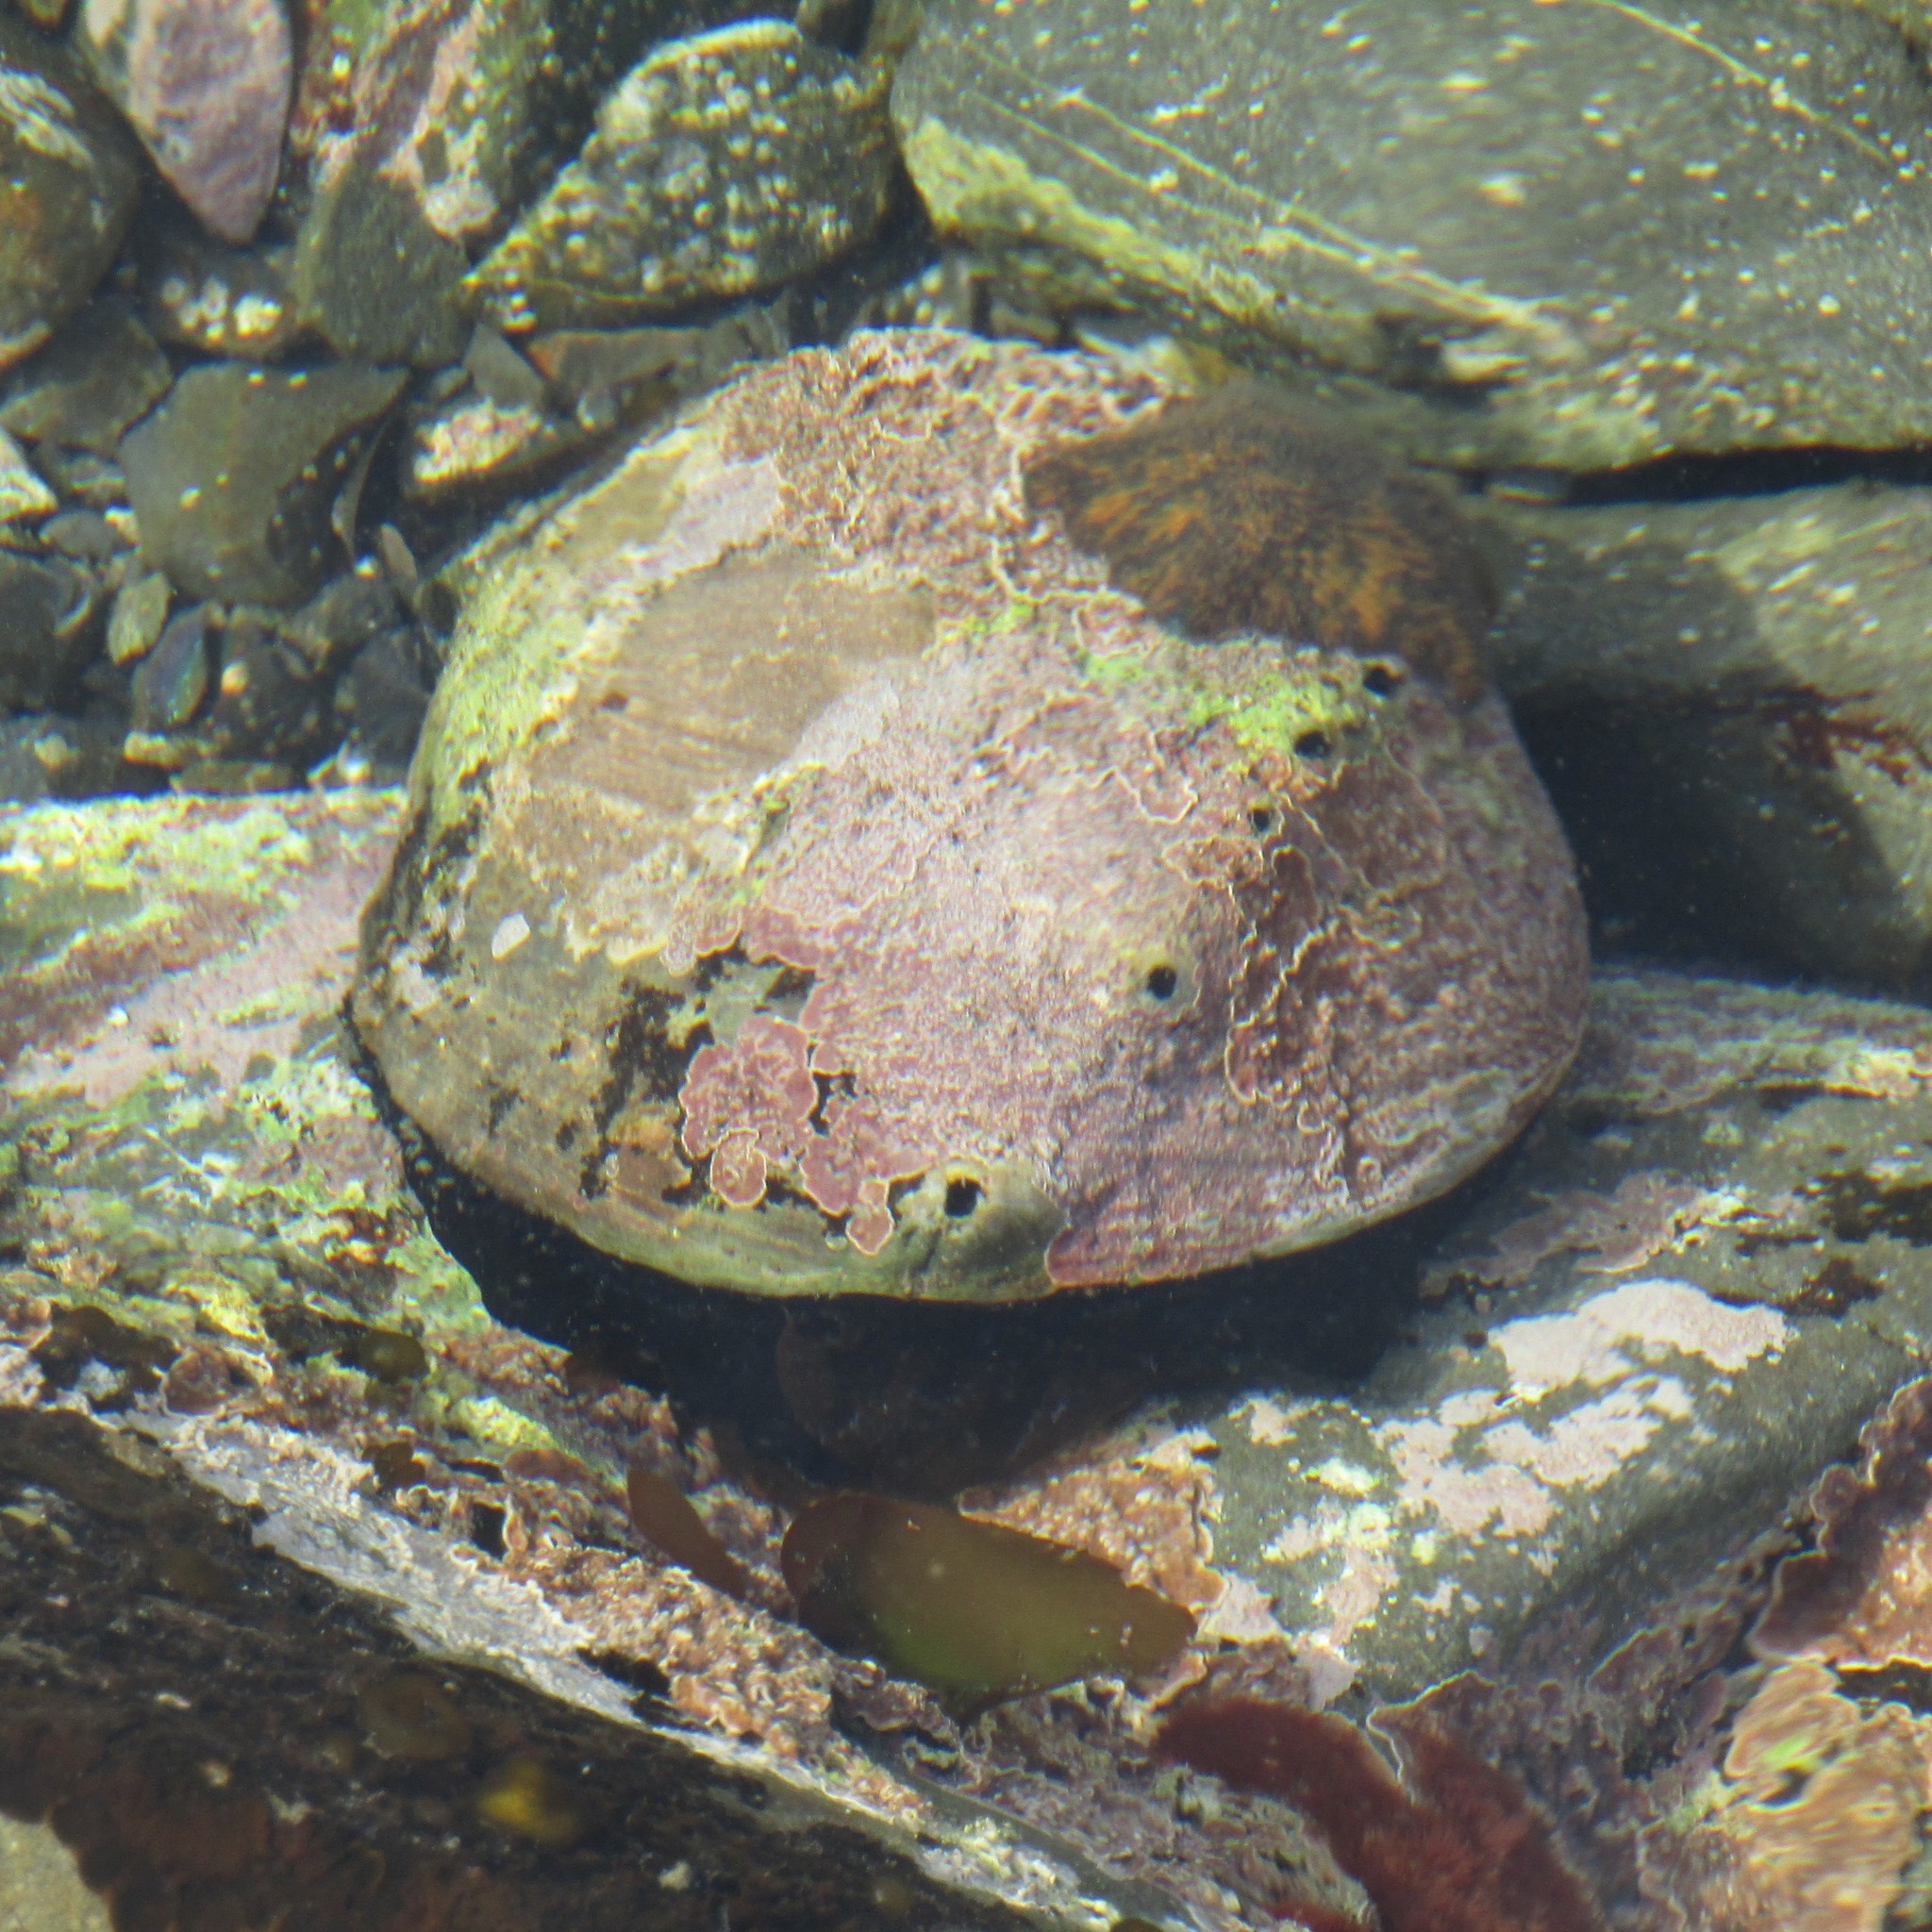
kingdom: Animalia
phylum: Mollusca
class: Gastropoda
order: Lepetellida
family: Haliotidae
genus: Haliotis
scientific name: Haliotis iris
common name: Abalone
